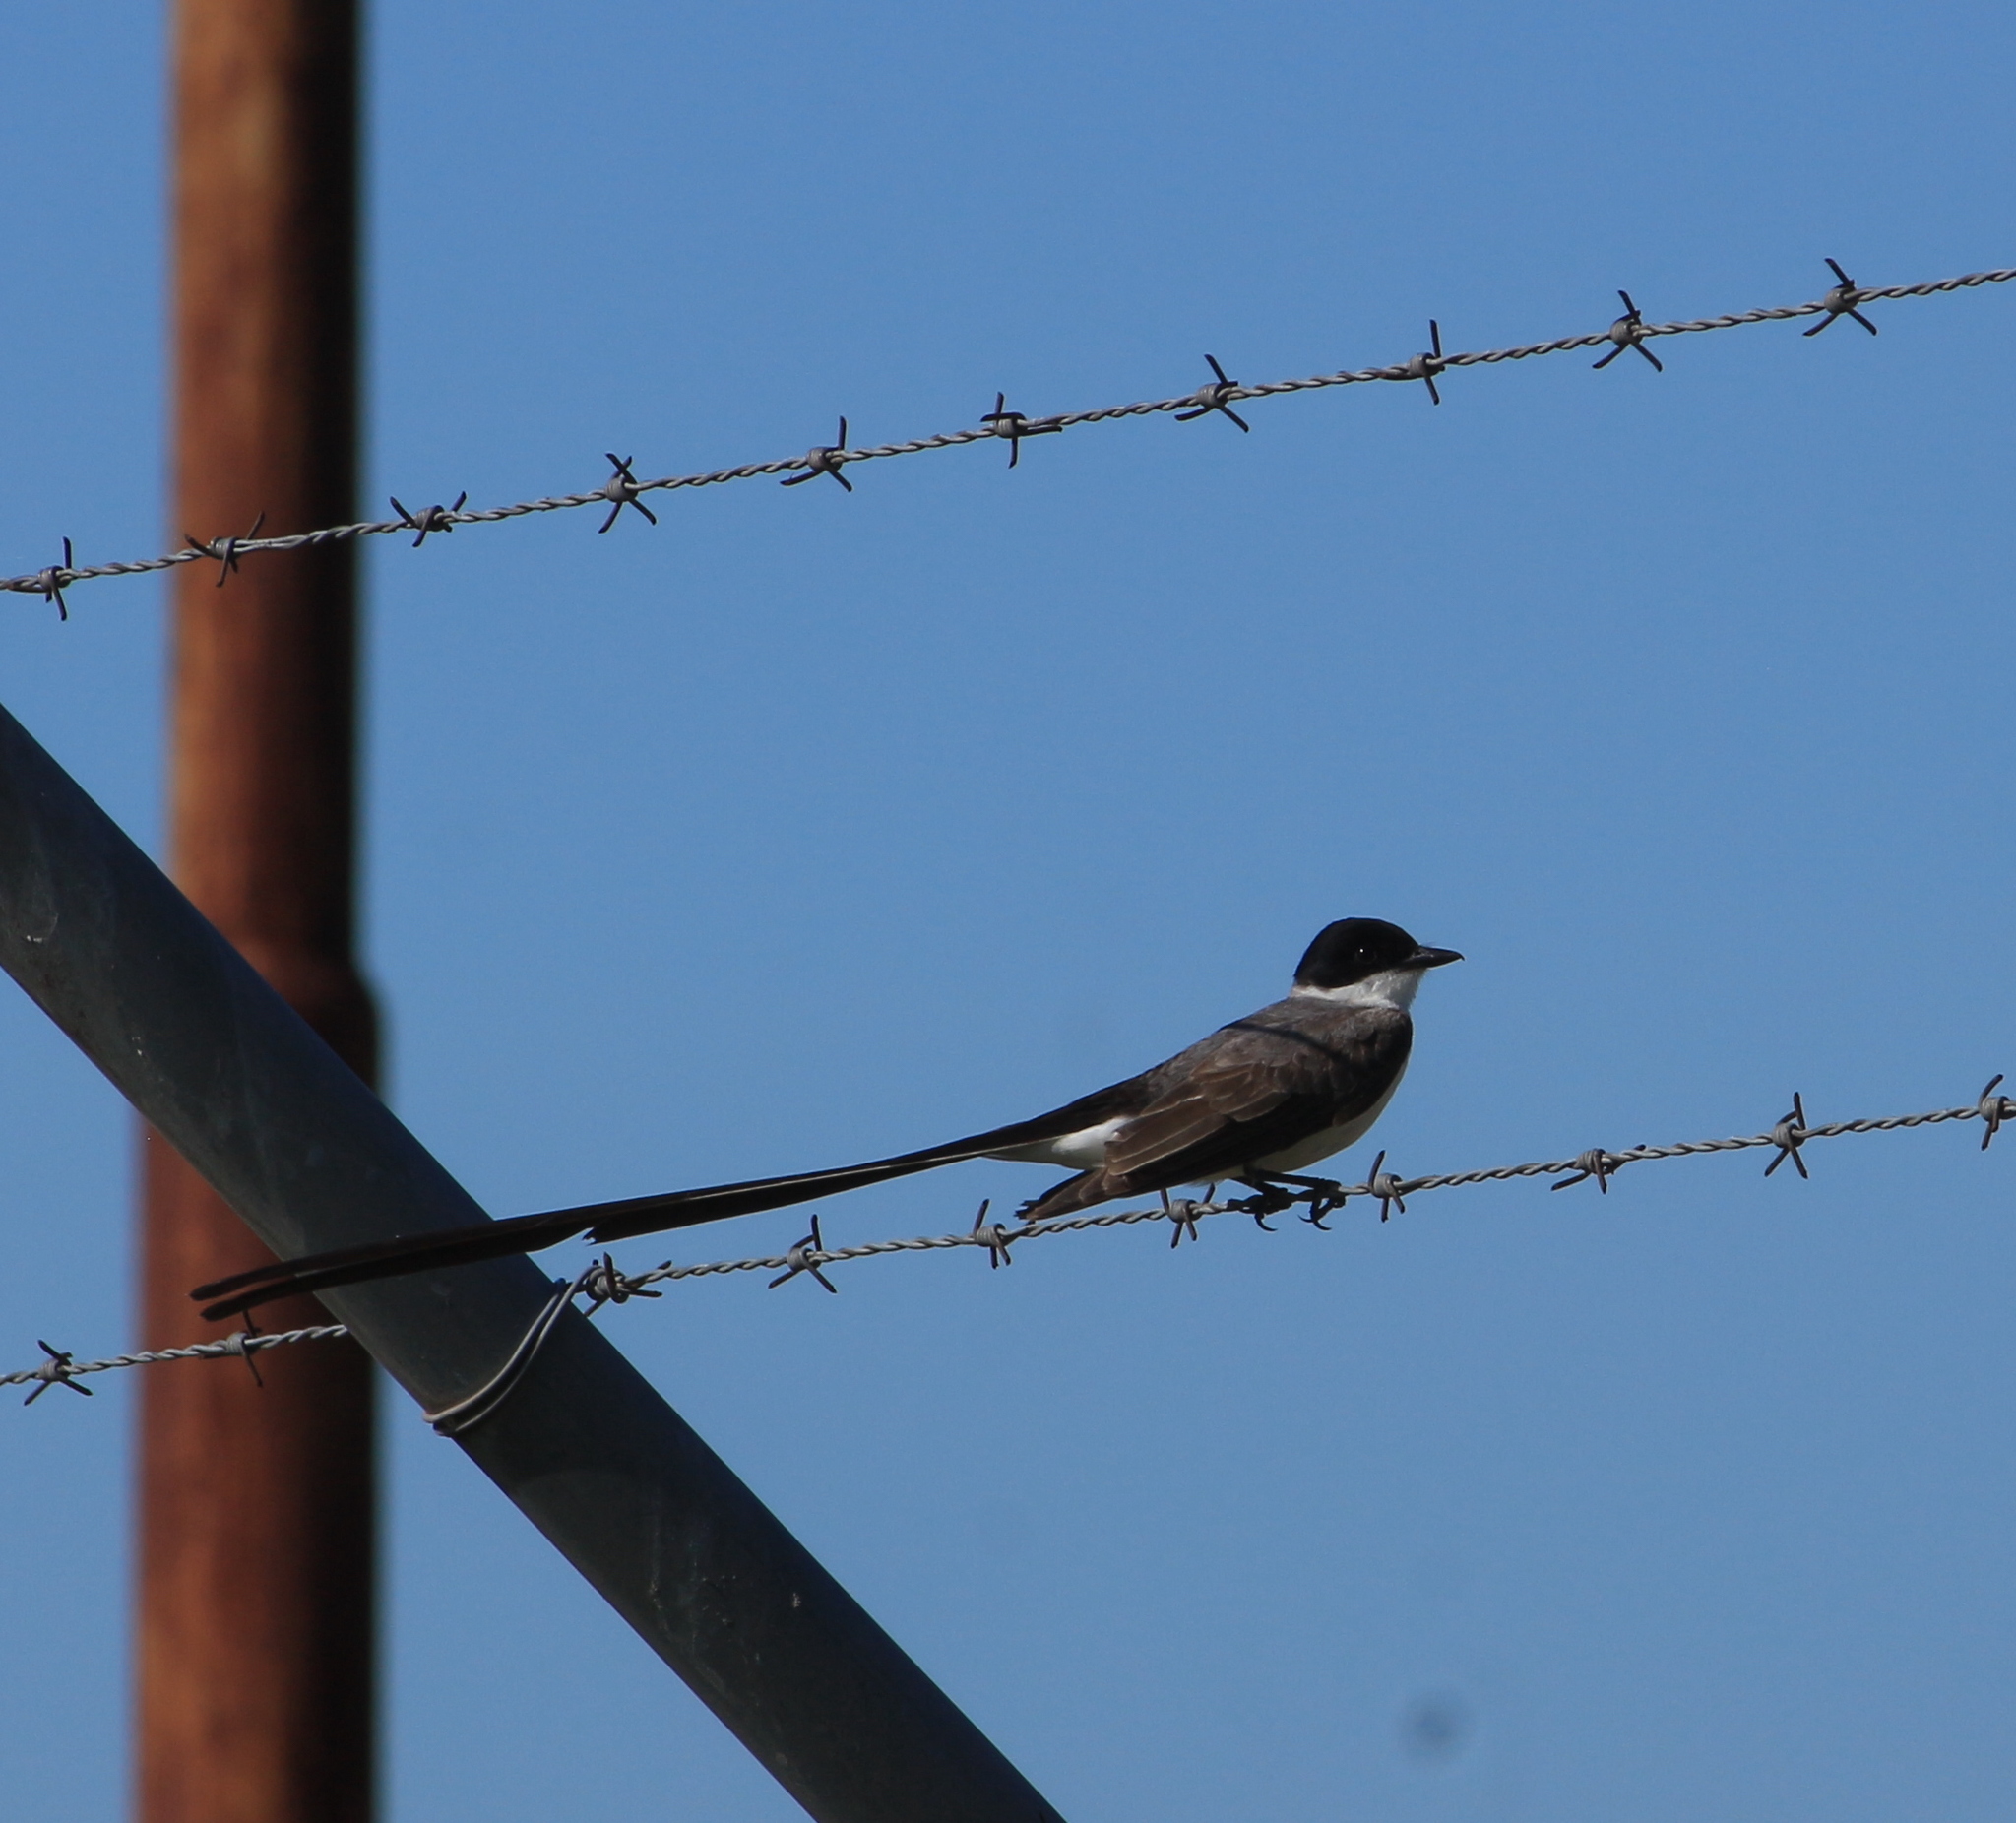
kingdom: Animalia
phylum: Chordata
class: Aves
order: Passeriformes
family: Tyrannidae
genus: Tyrannus
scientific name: Tyrannus savana
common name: Fork-tailed flycatcher
